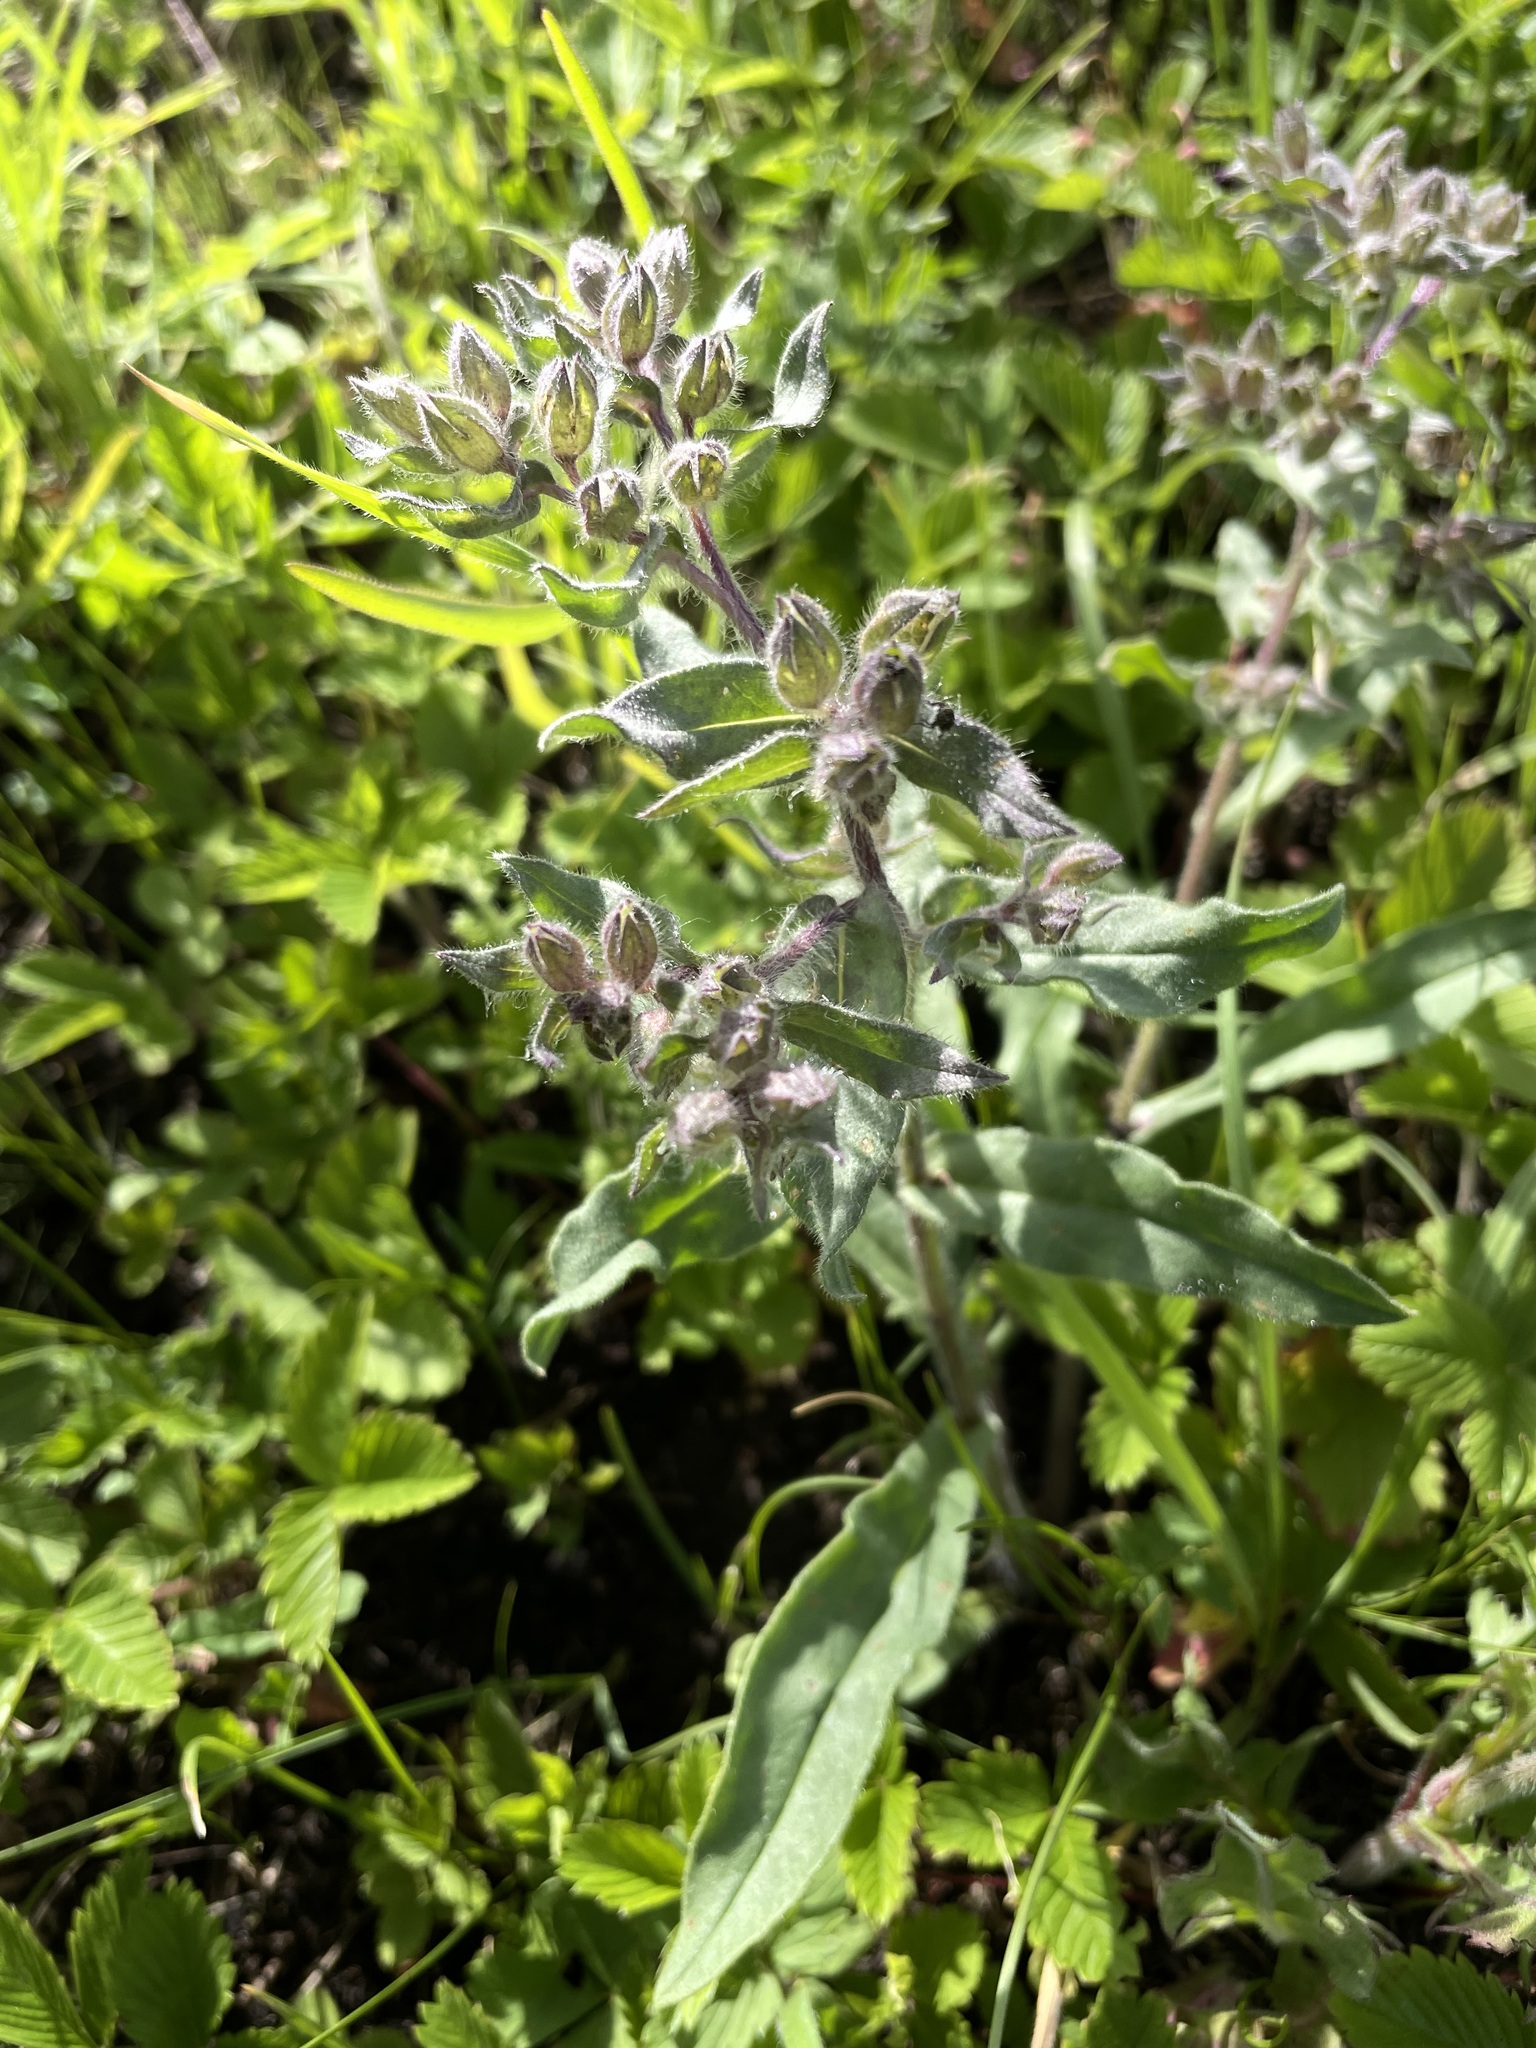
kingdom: Plantae
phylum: Tracheophyta
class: Magnoliopsida
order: Boraginales
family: Boraginaceae
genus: Nonea
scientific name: Nonea pulla
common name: Brown nonea
